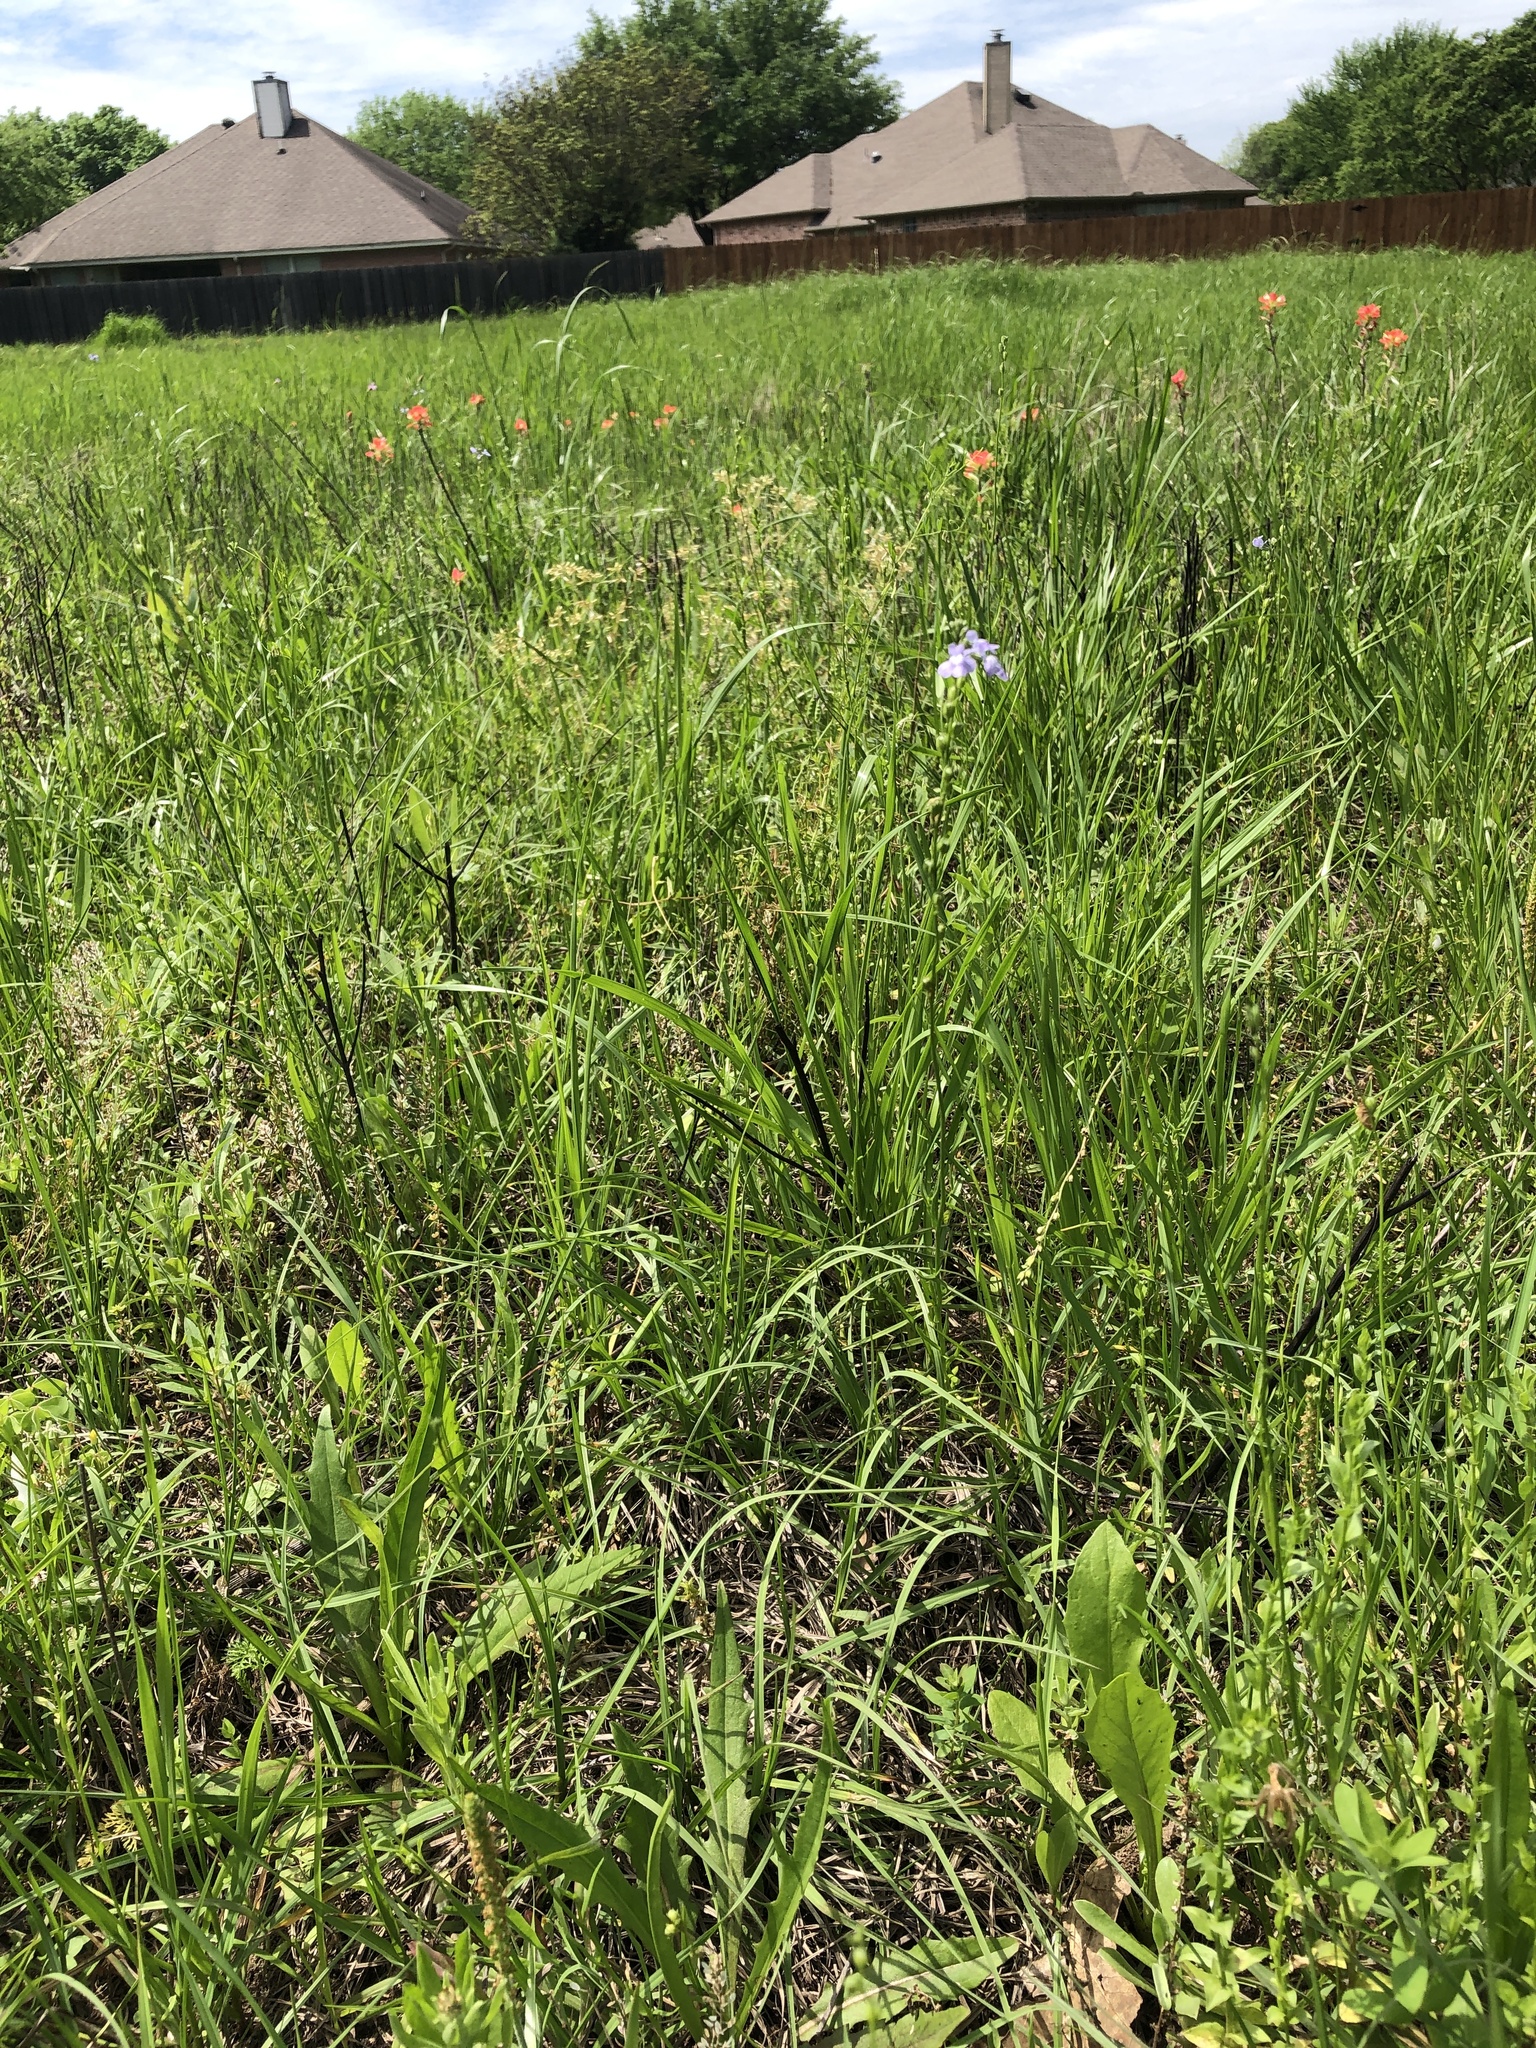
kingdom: Plantae
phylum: Tracheophyta
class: Magnoliopsida
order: Lamiales
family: Plantaginaceae
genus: Nuttallanthus
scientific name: Nuttallanthus texanus
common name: Texas toadflax
